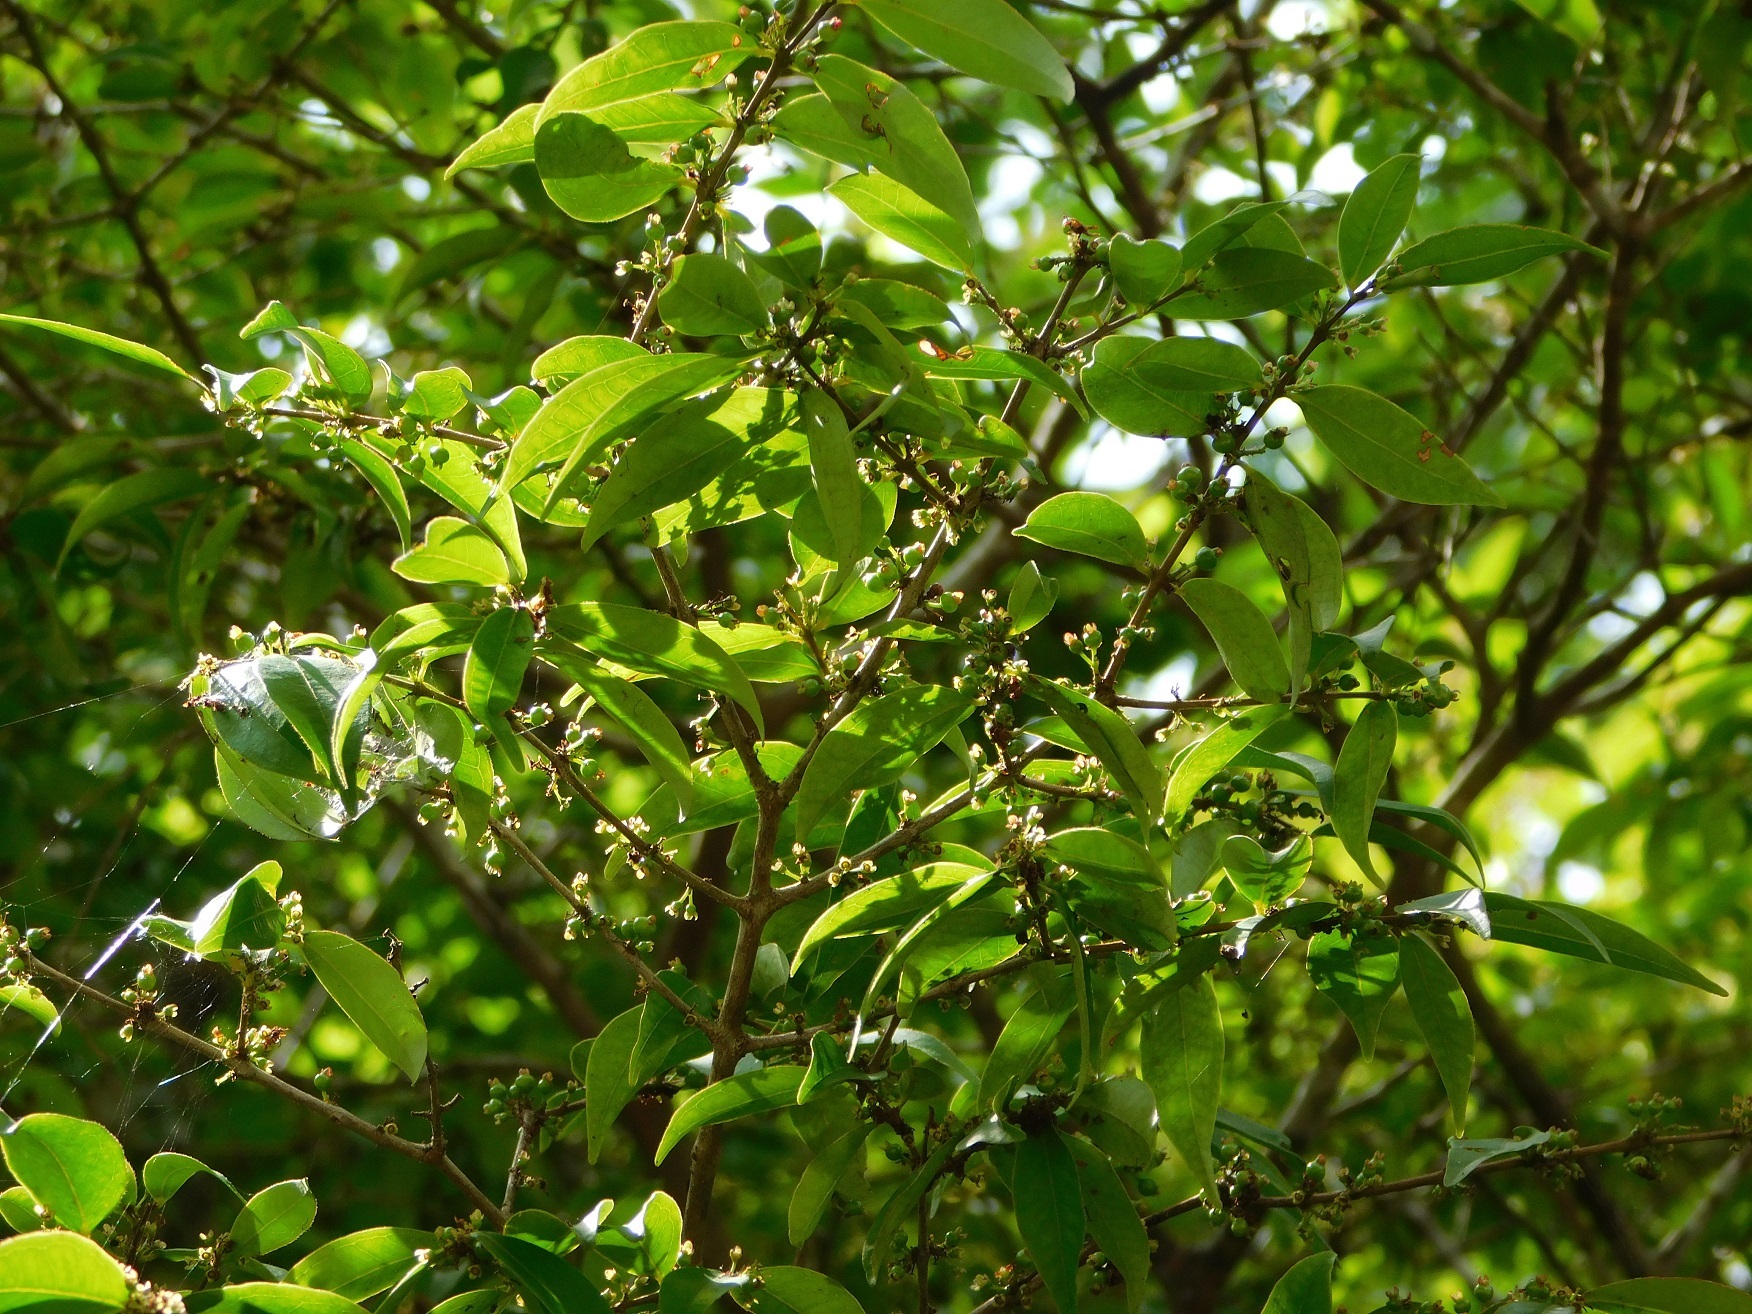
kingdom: Plantae
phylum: Tracheophyta
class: Magnoliopsida
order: Myrtales
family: Myrtaceae
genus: Eugenia
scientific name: Eugenia axillaris
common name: Choaky berry
